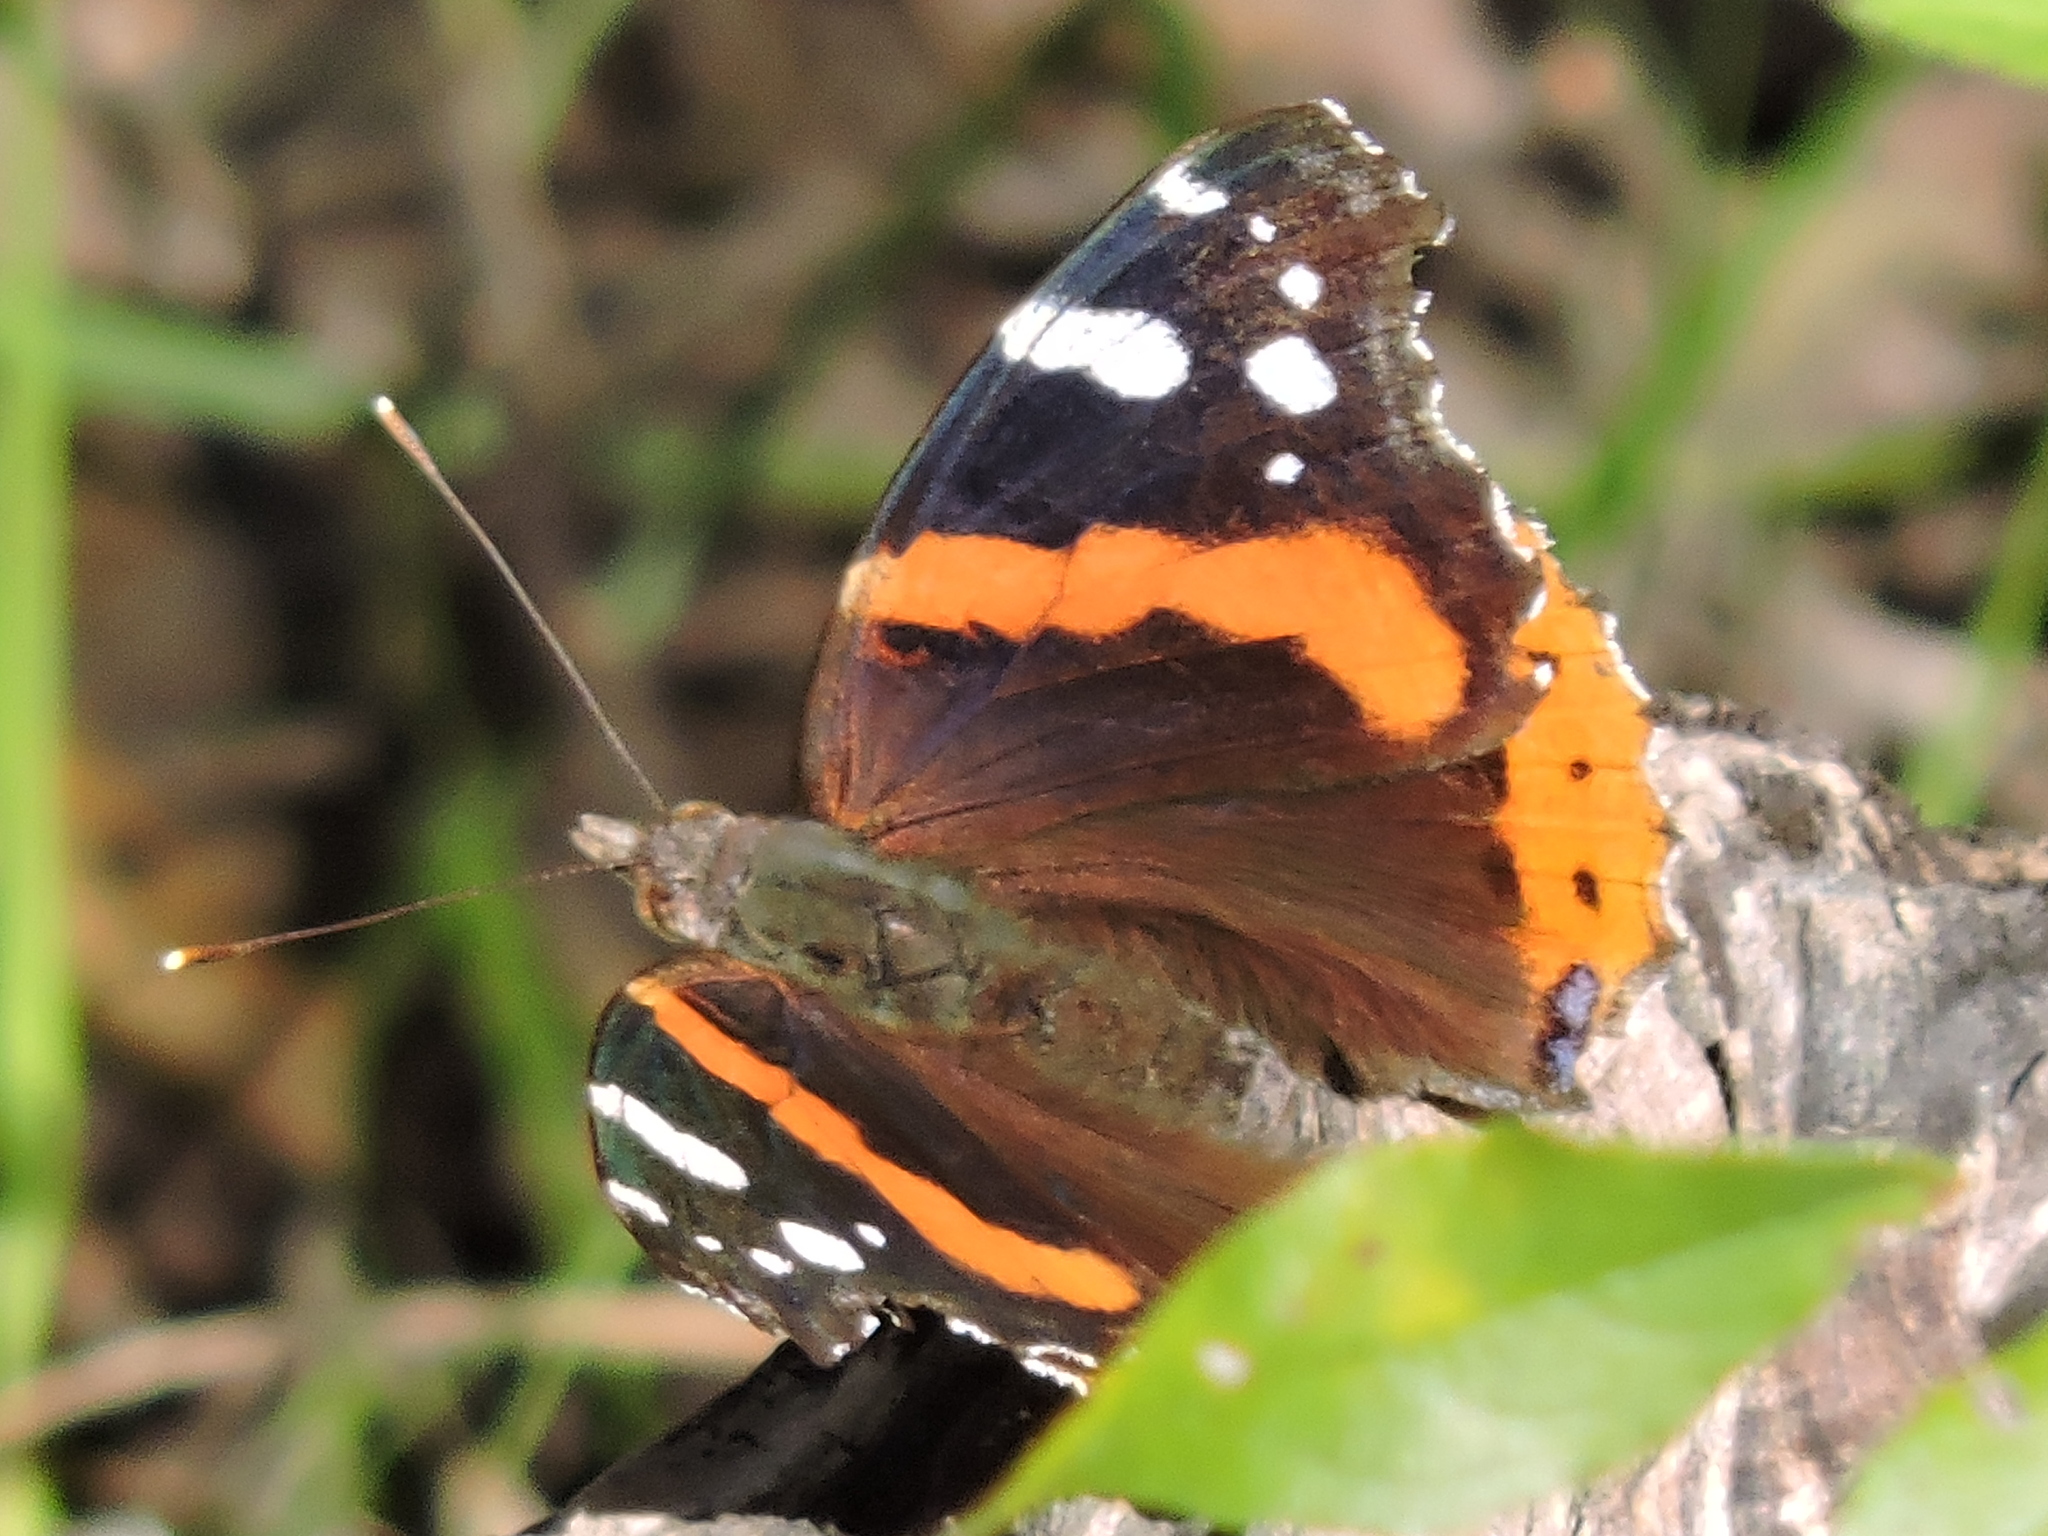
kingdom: Animalia
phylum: Arthropoda
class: Insecta
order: Lepidoptera
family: Nymphalidae
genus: Vanessa
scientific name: Vanessa atalanta
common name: Red admiral
